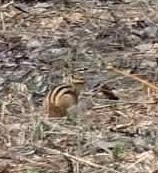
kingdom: Animalia
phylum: Chordata
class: Mammalia
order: Rodentia
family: Sciuridae
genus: Tamias
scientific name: Tamias sibiricus
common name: Siberian chipmunk
